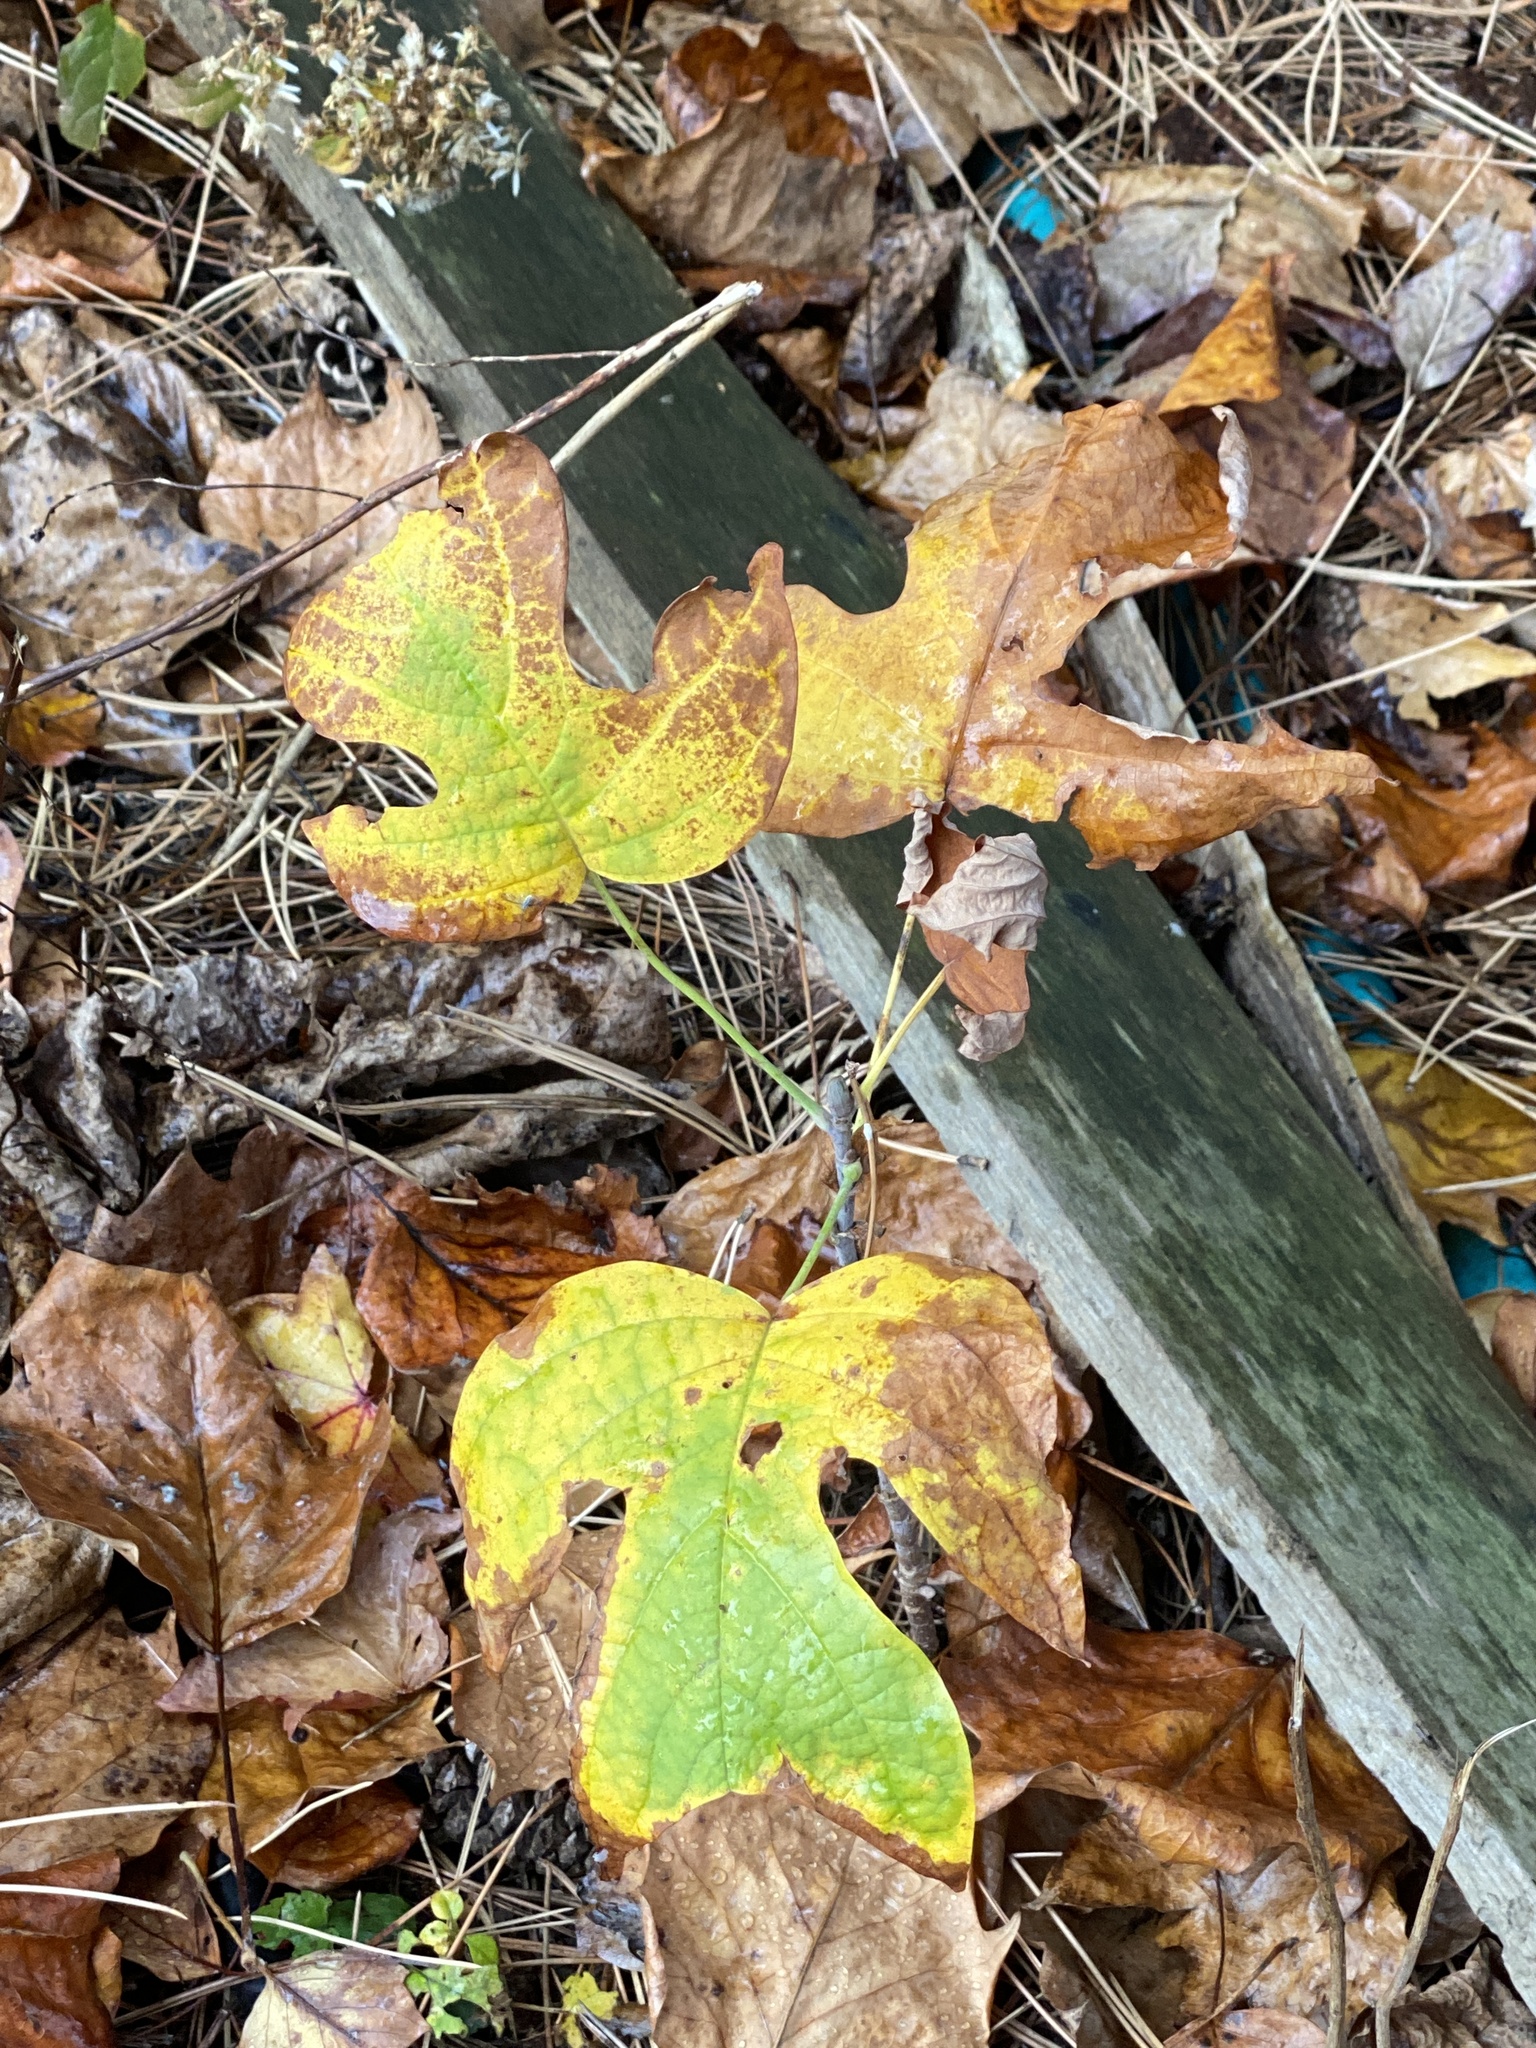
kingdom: Plantae
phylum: Tracheophyta
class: Magnoliopsida
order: Magnoliales
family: Magnoliaceae
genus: Liriodendron
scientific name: Liriodendron tulipifera
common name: Tulip tree
